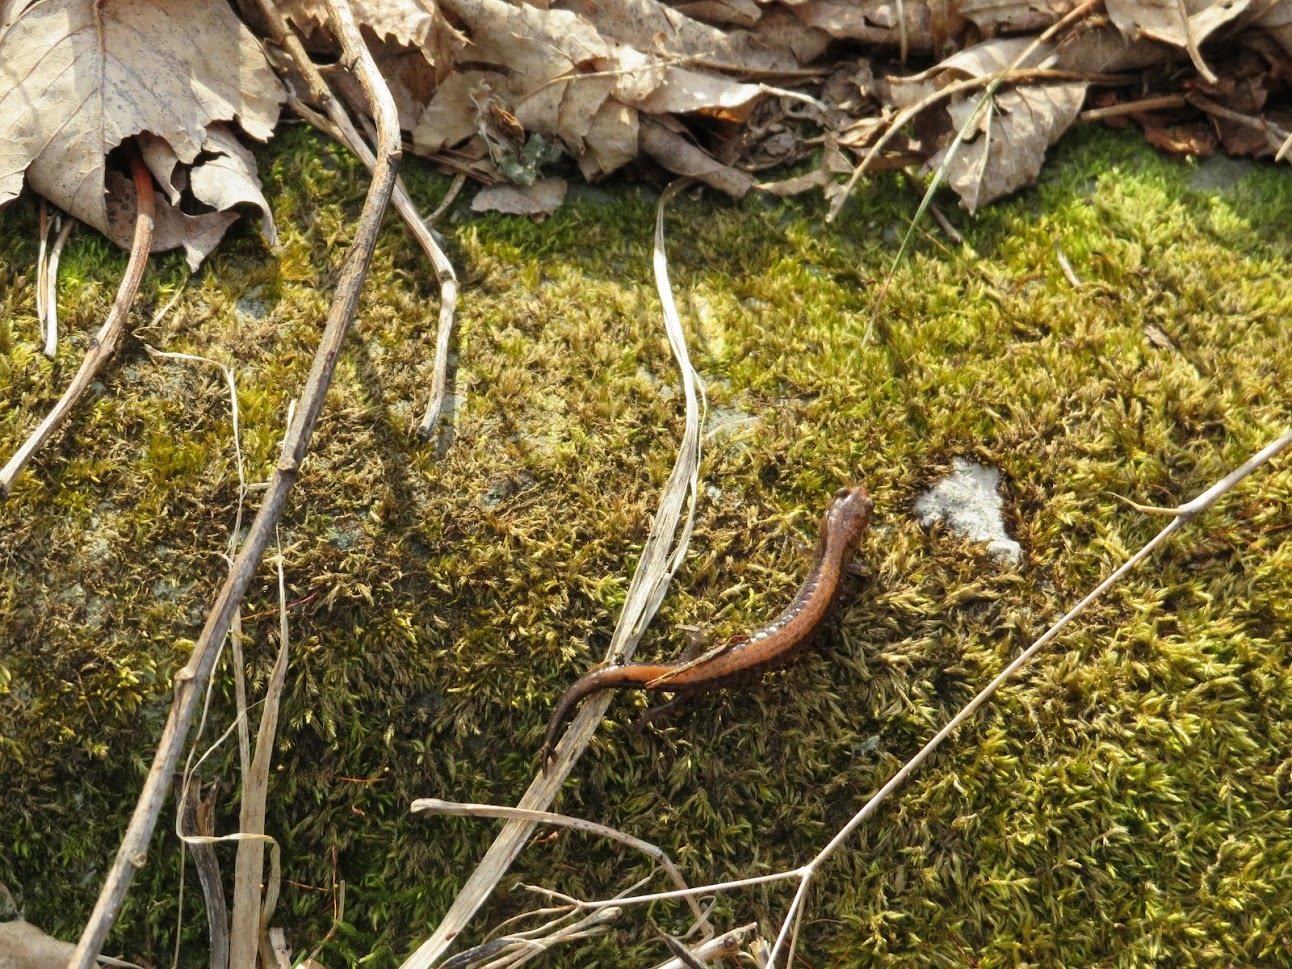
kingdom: Animalia
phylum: Chordata
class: Amphibia
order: Caudata
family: Plethodontidae
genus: Plethodon
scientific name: Plethodon cinereus
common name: Redback salamander
